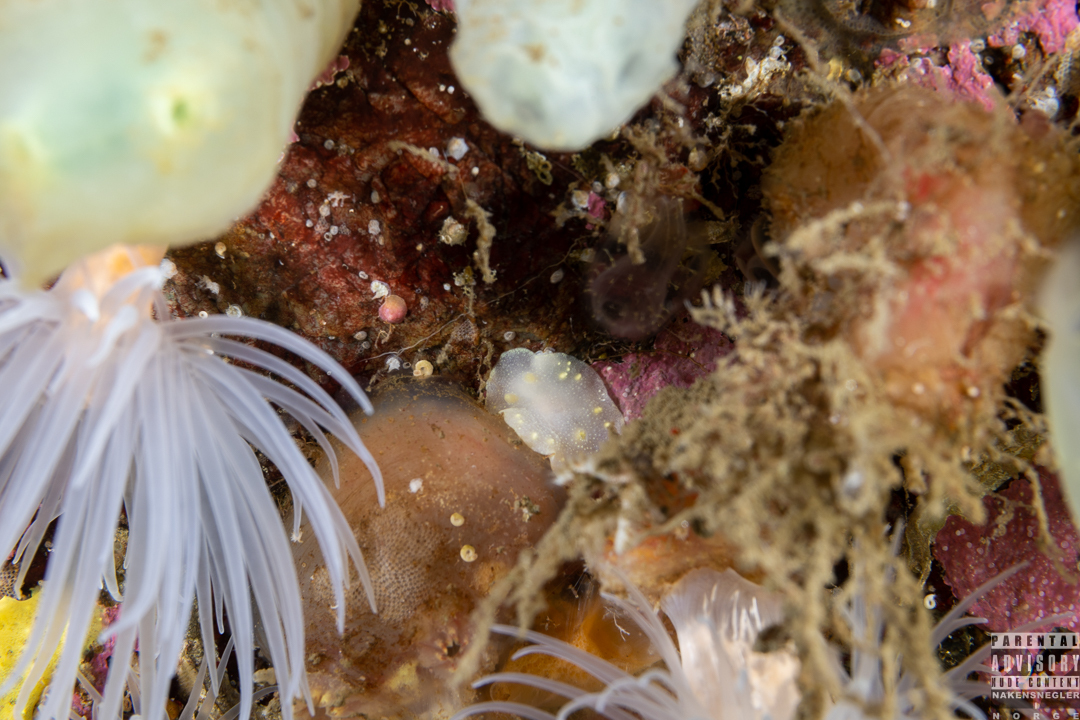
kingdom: Animalia
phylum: Mollusca
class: Gastropoda
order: Nudibranchia
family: Cadlinidae
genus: Cadlina
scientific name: Cadlina laevis
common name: White atlantic cadlina
